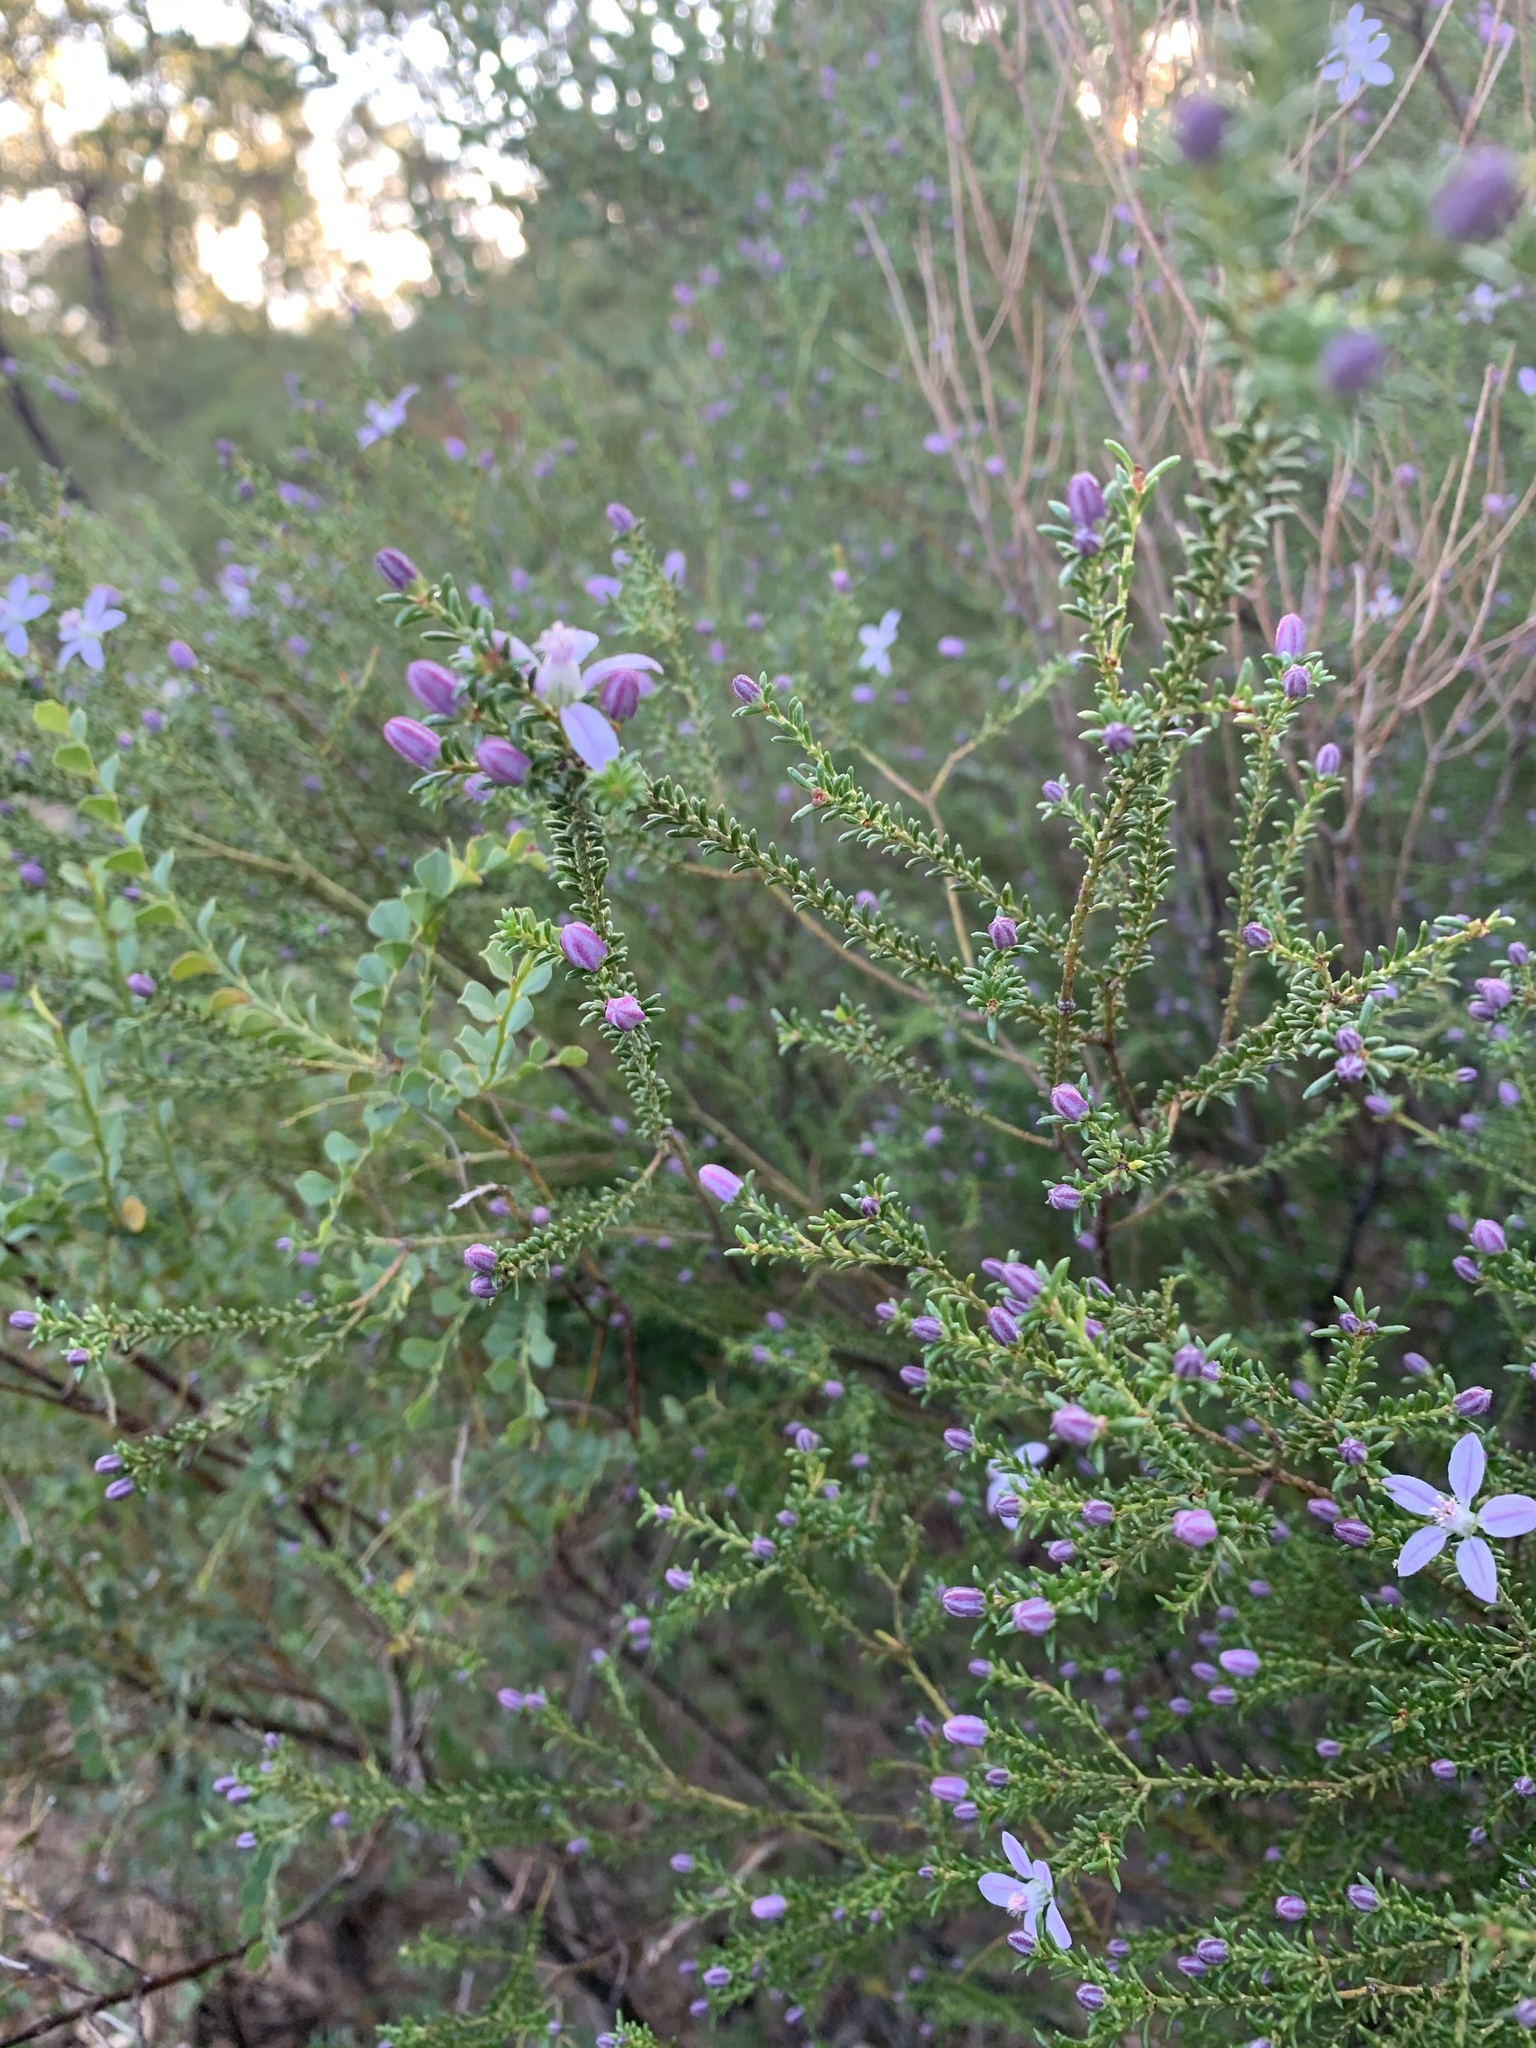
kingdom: Plantae
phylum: Tracheophyta
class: Magnoliopsida
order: Sapindales
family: Rutaceae
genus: Philotheca
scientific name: Philotheca salsolifolia
